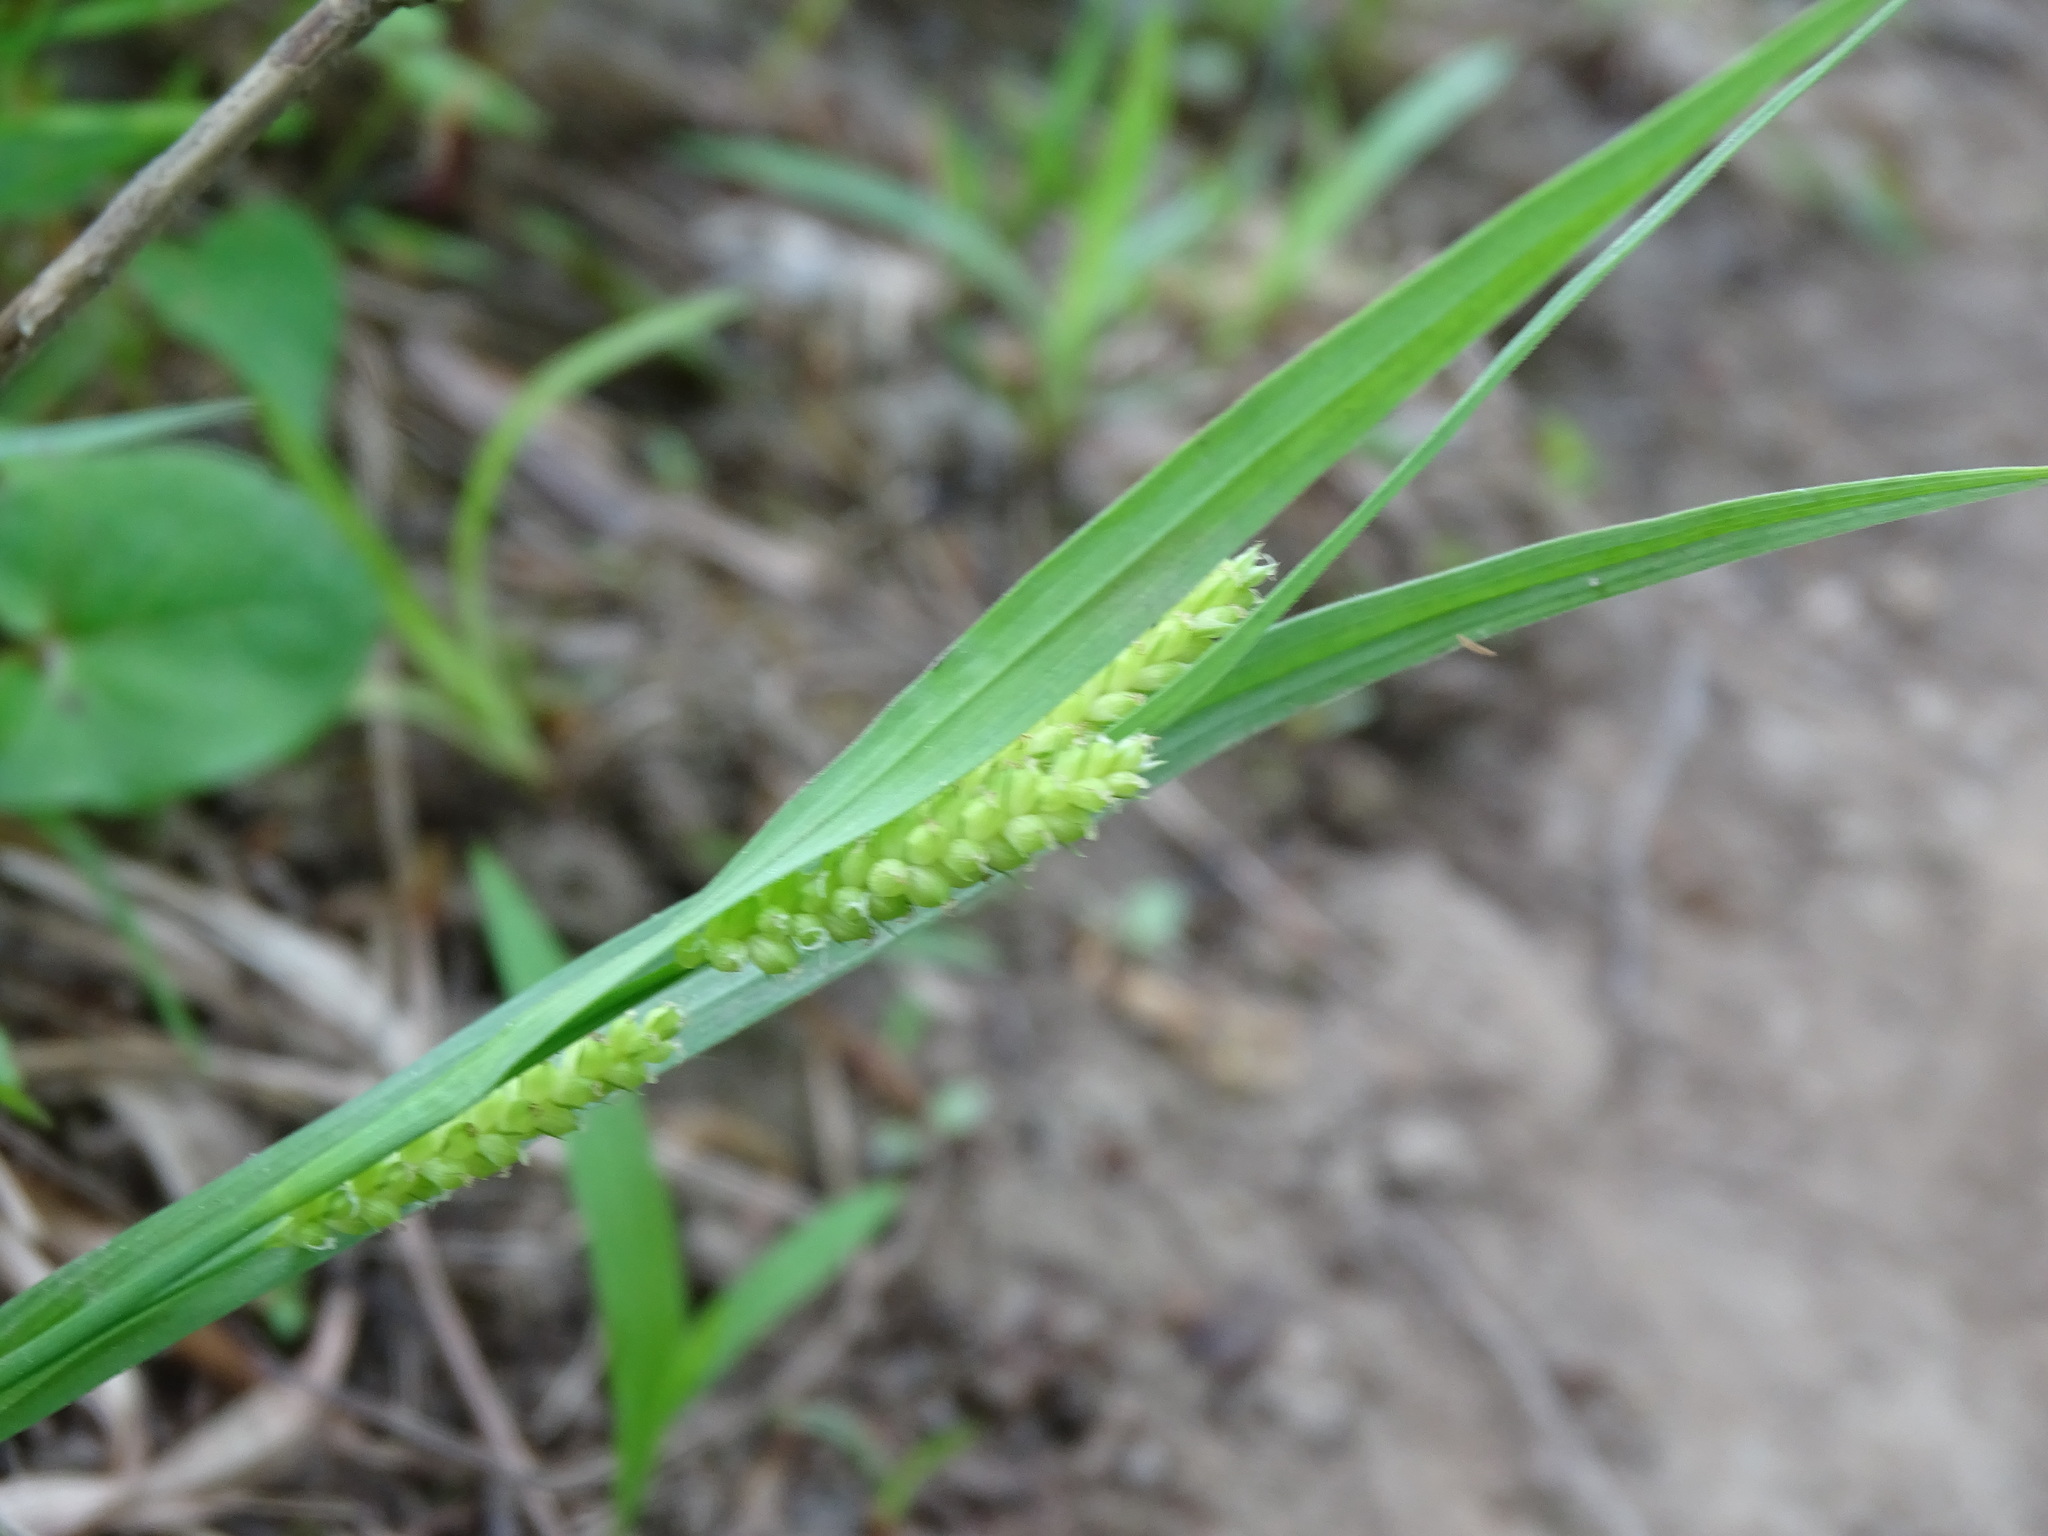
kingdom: Plantae
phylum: Tracheophyta
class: Liliopsida
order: Poales
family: Cyperaceae
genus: Carex
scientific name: Carex granularis
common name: Granular sedge
